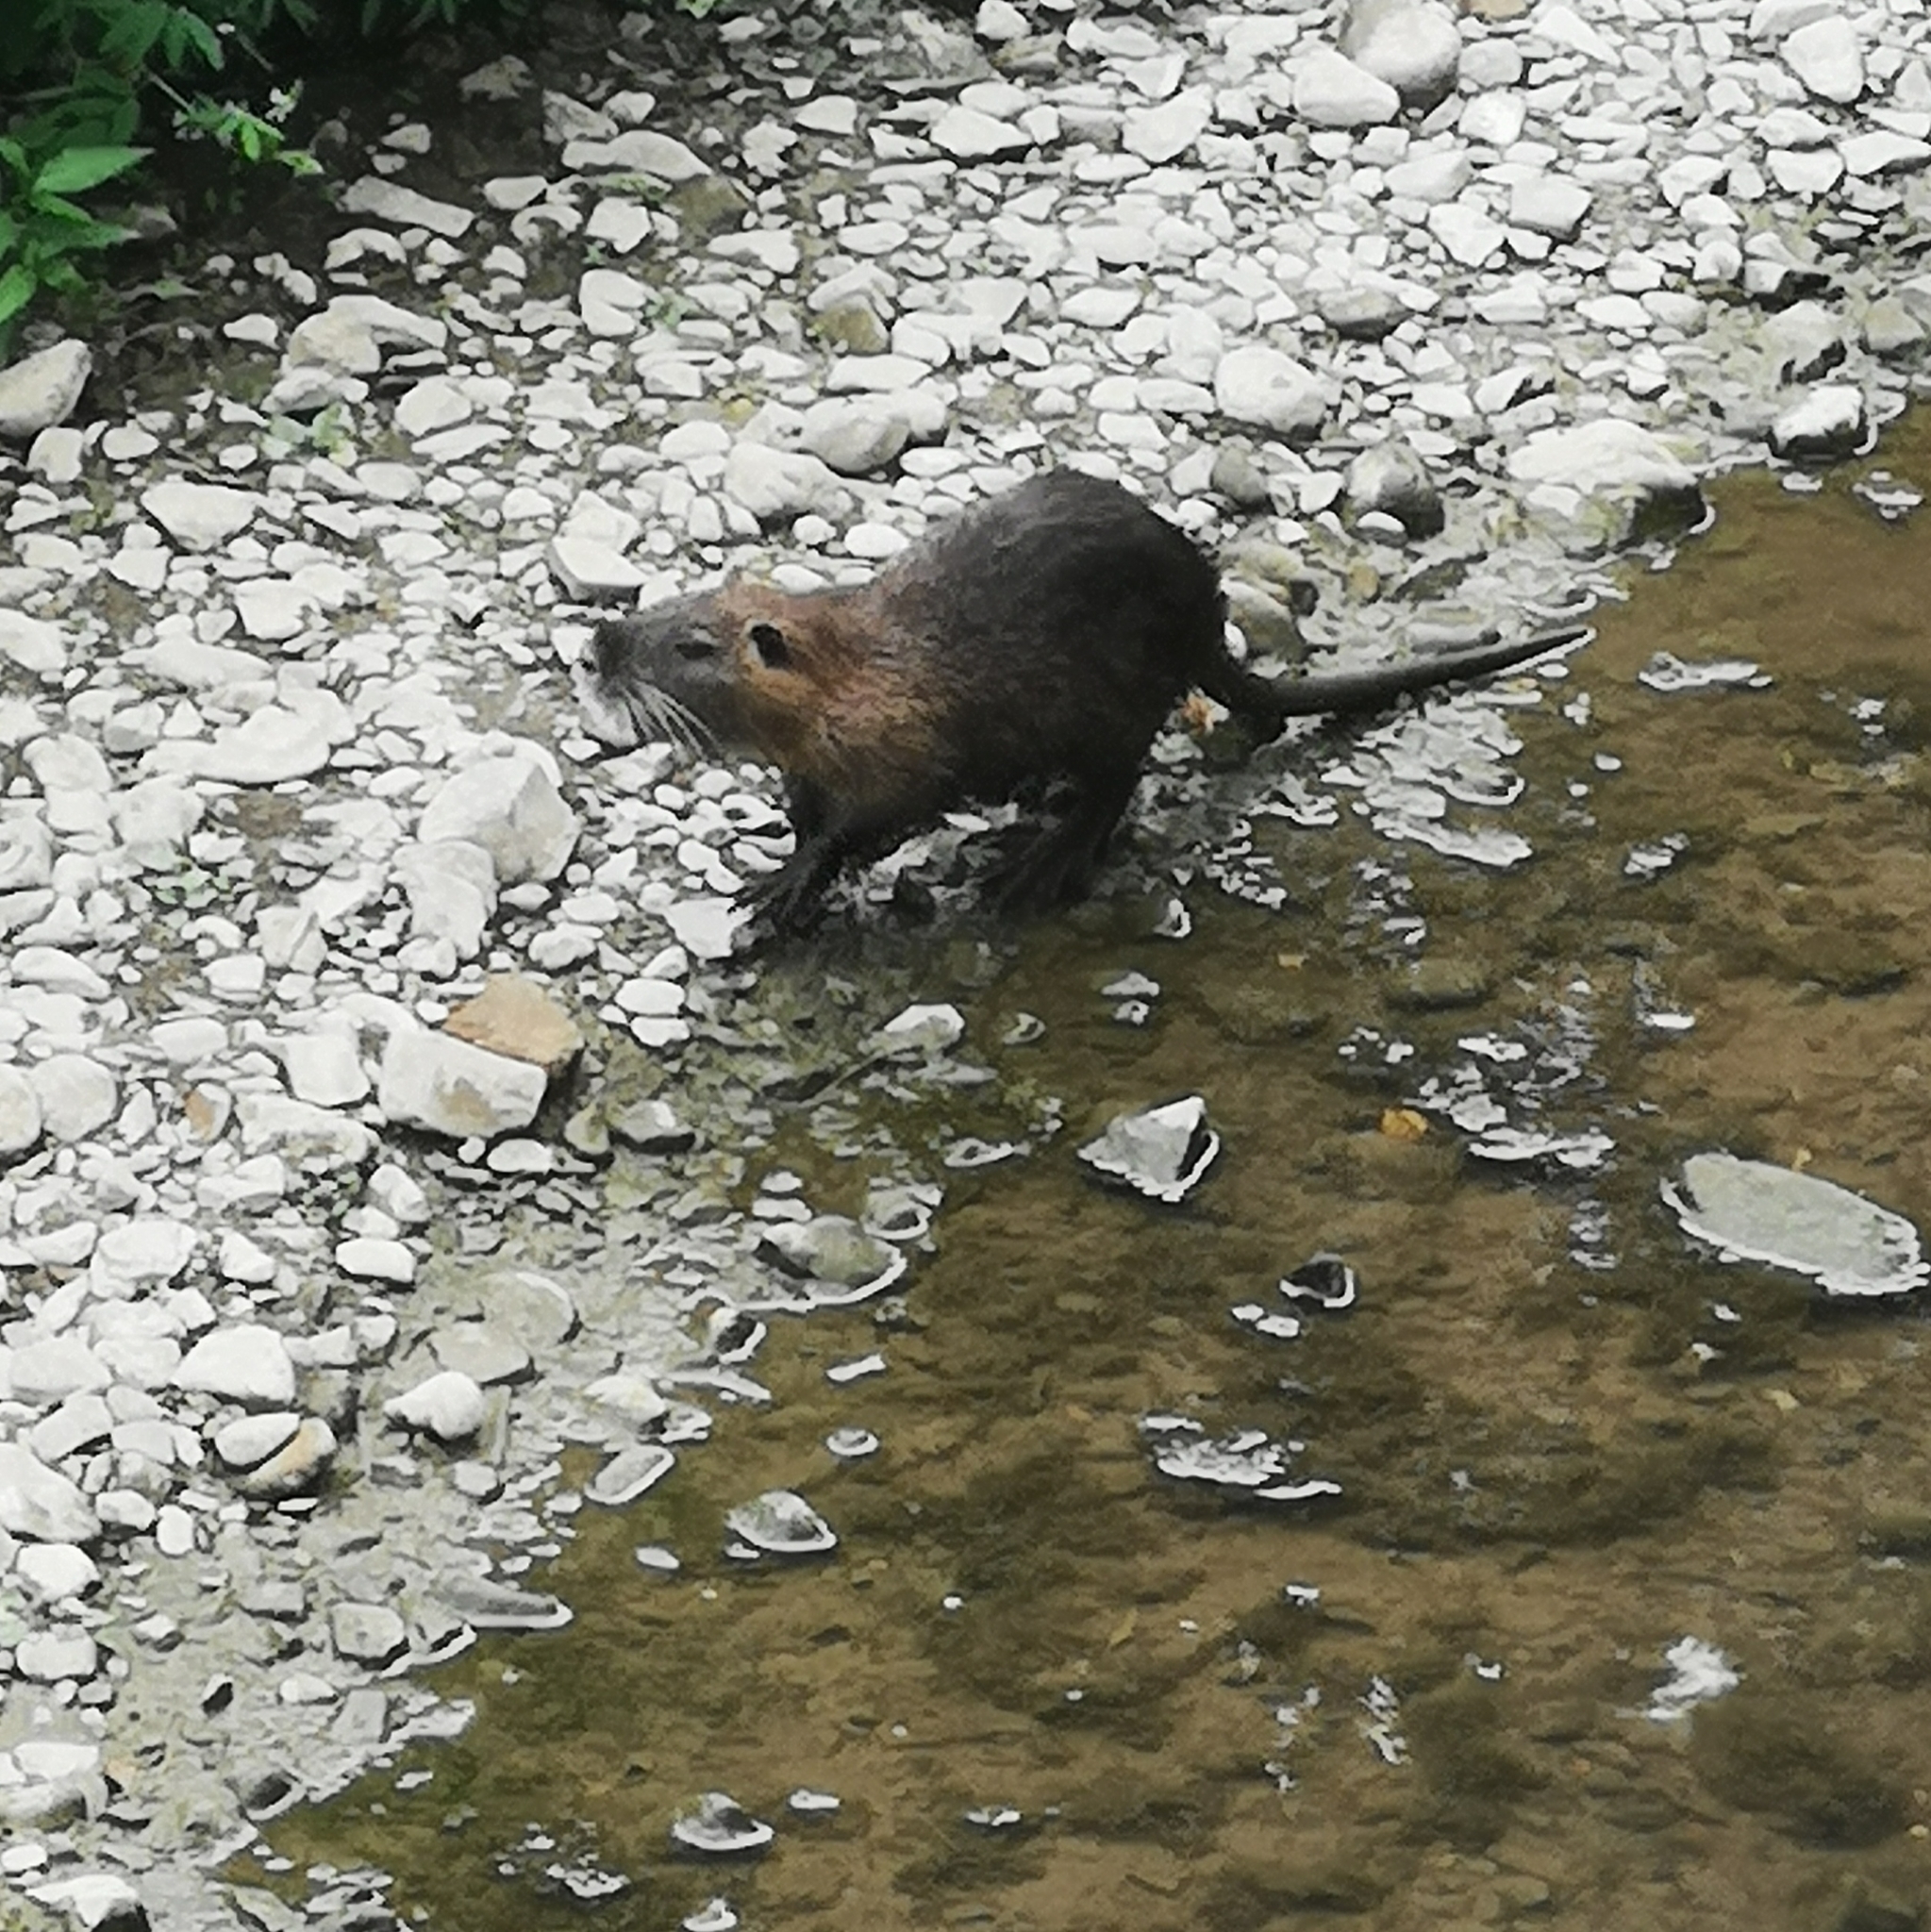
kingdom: Animalia
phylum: Chordata
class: Mammalia
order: Rodentia
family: Myocastoridae
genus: Myocastor
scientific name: Myocastor coypus
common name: Coypu
